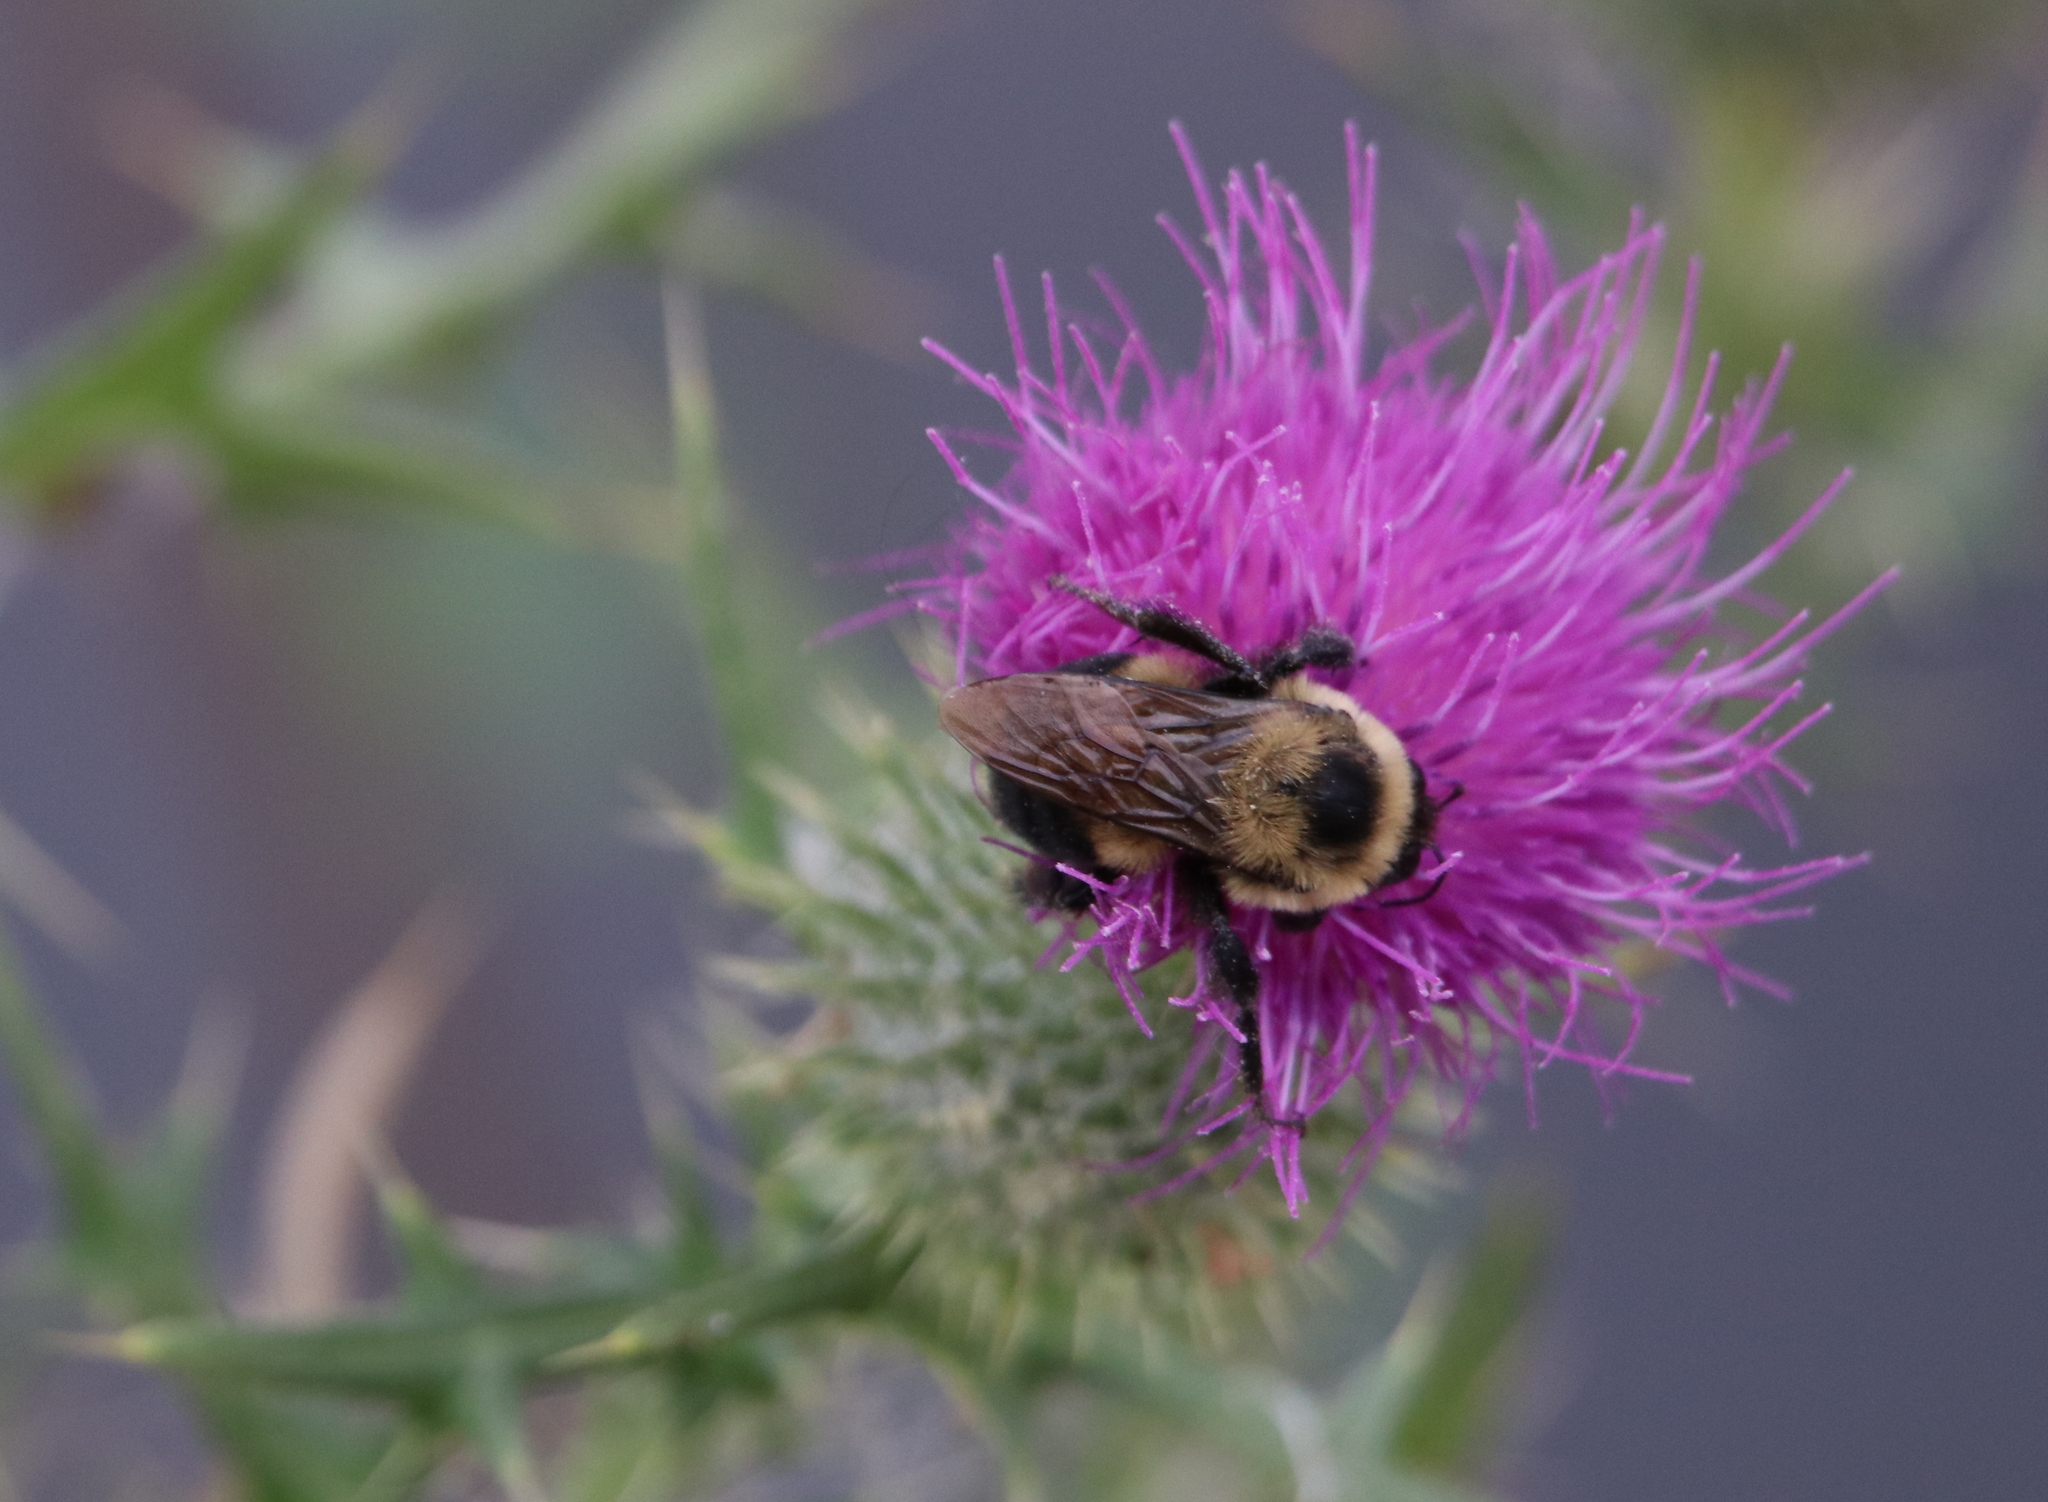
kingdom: Animalia
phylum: Arthropoda
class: Insecta
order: Hymenoptera
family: Apidae
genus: Bombus
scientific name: Bombus griseocollis
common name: Brown-belted bumble bee
